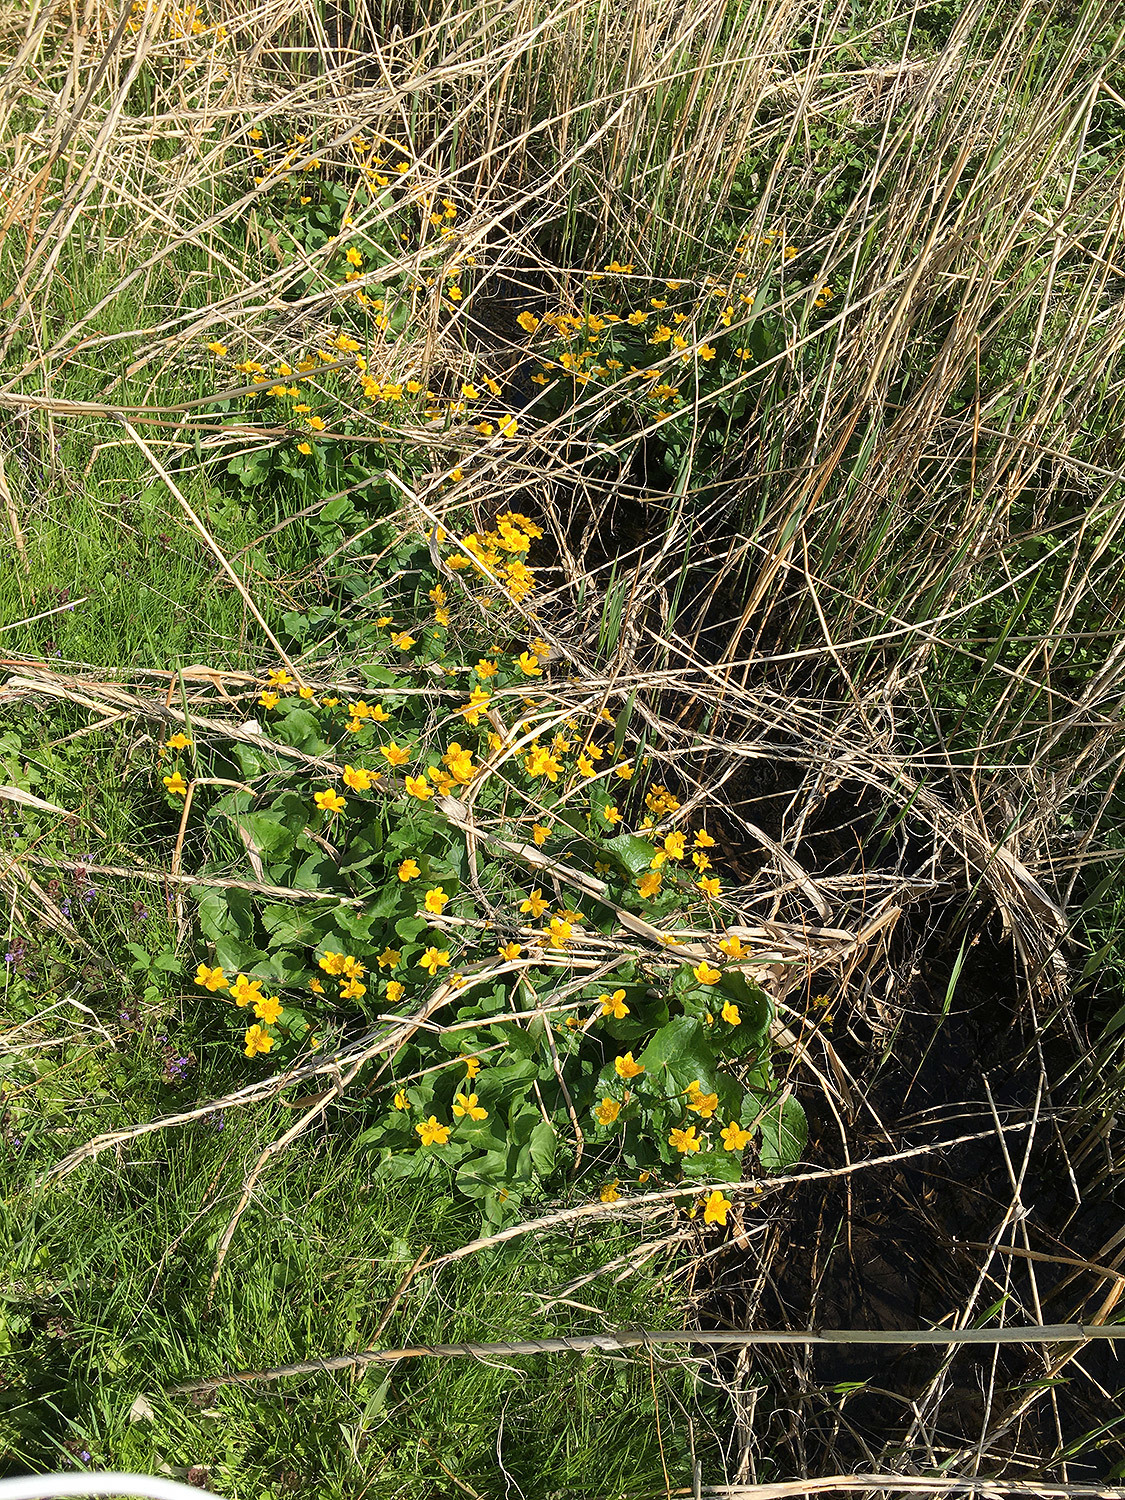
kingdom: Plantae
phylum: Tracheophyta
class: Magnoliopsida
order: Ranunculales
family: Ranunculaceae
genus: Caltha
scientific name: Caltha palustris
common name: Marsh marigold
